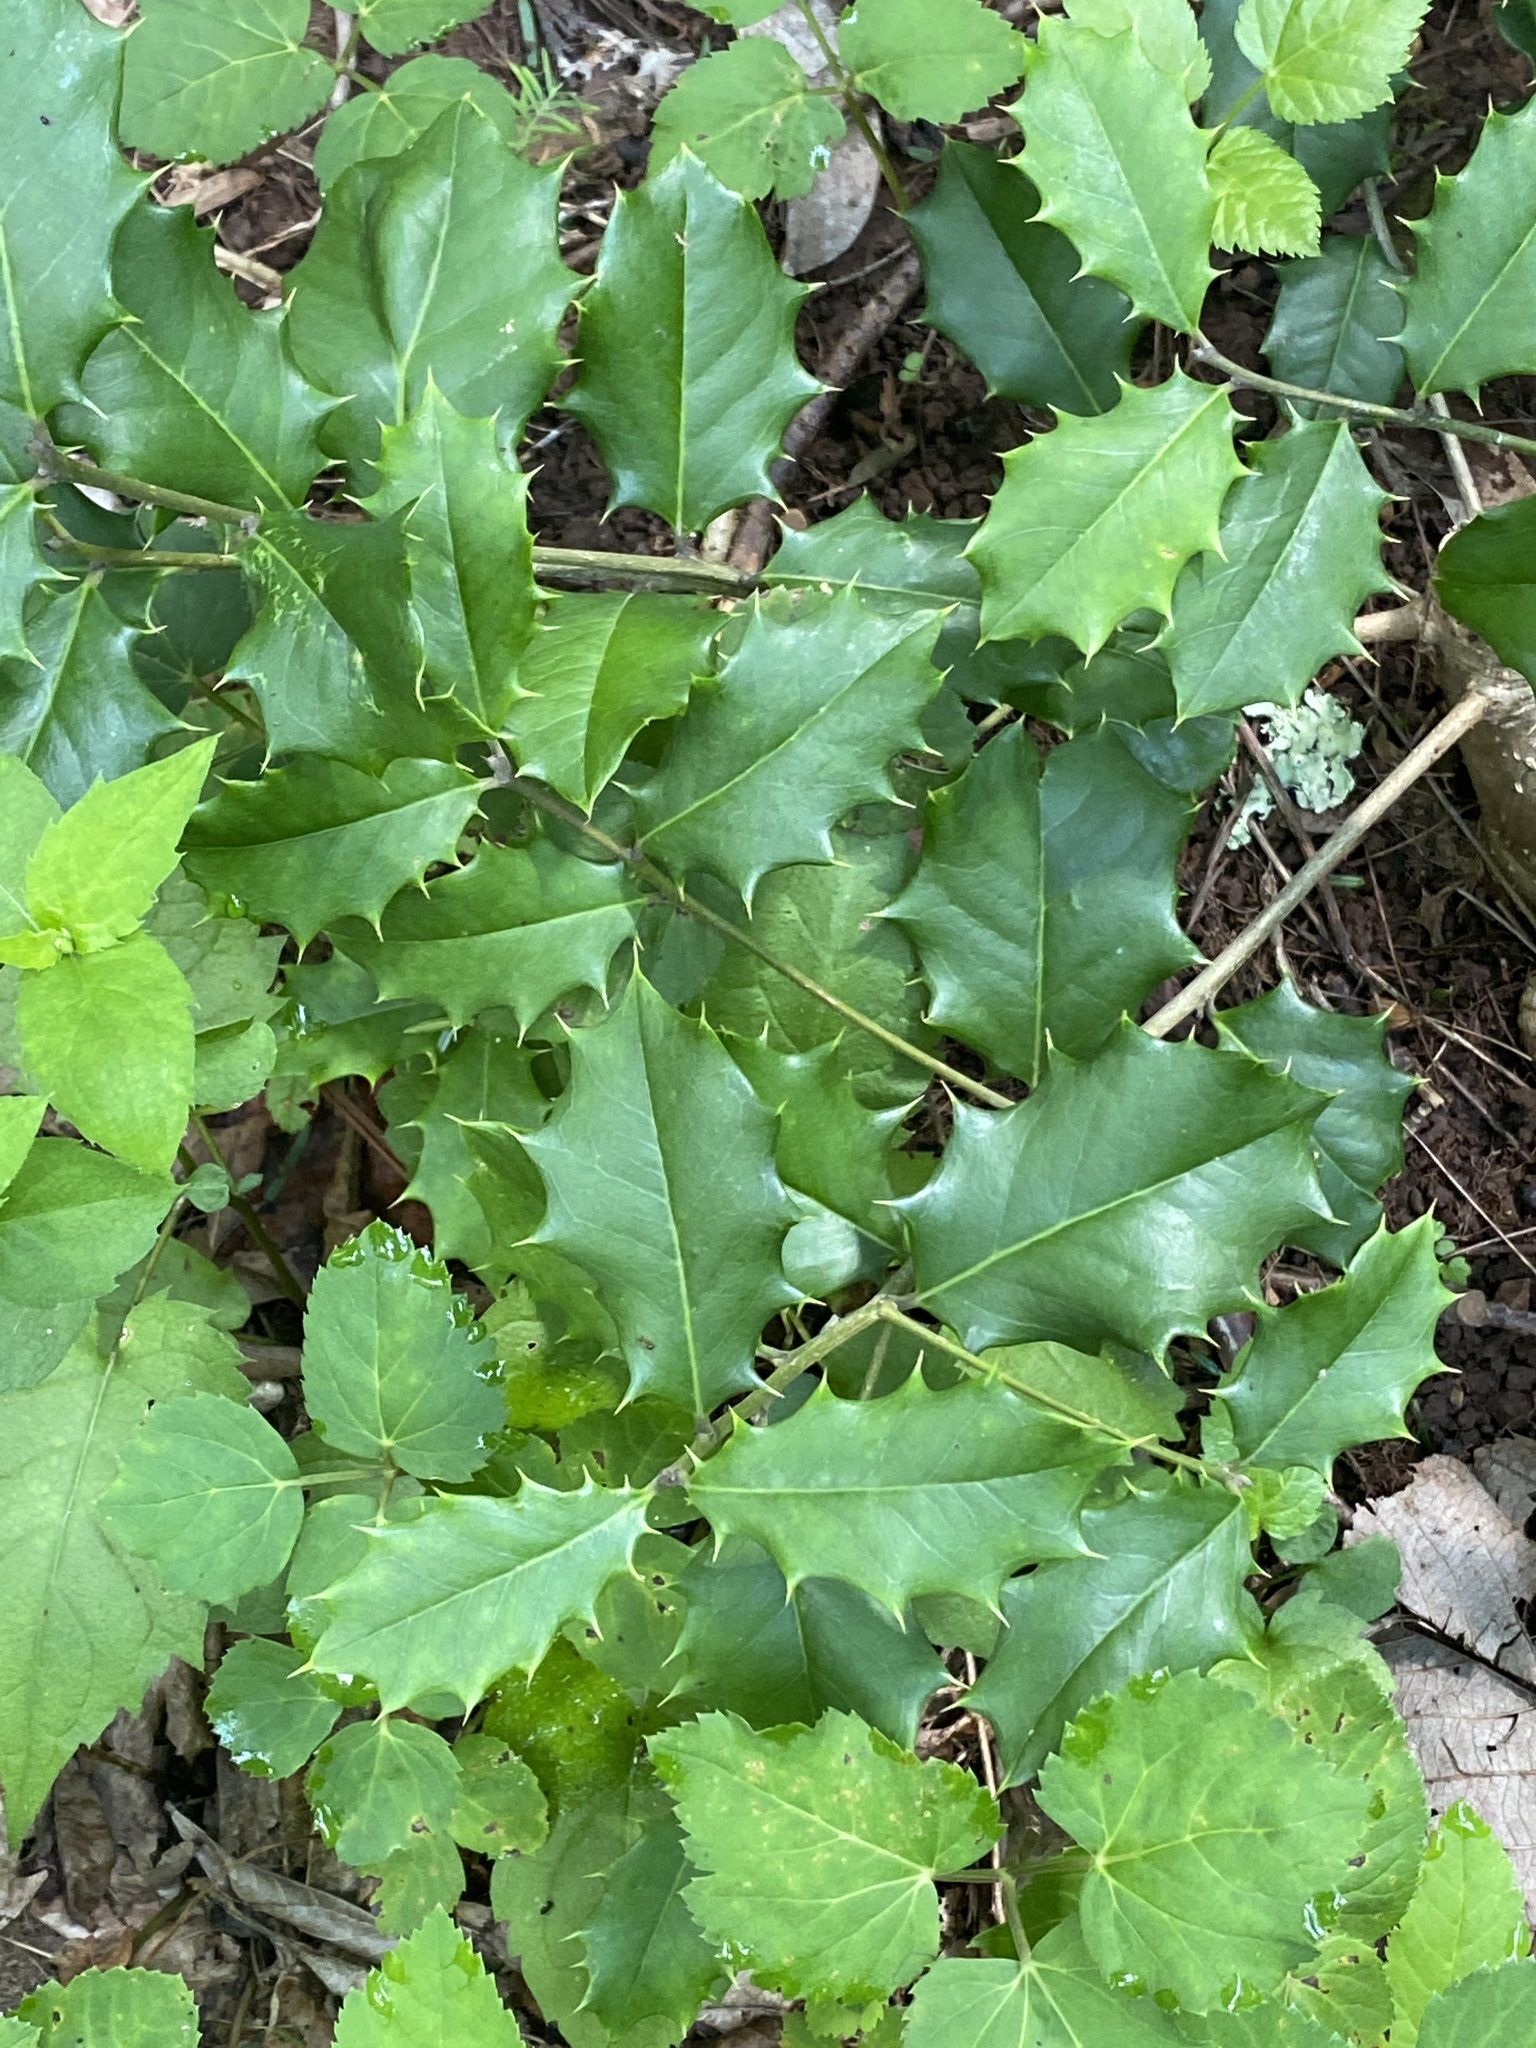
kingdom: Plantae
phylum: Tracheophyta
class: Magnoliopsida
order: Aquifoliales
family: Aquifoliaceae
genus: Ilex
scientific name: Ilex opaca
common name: American holly
